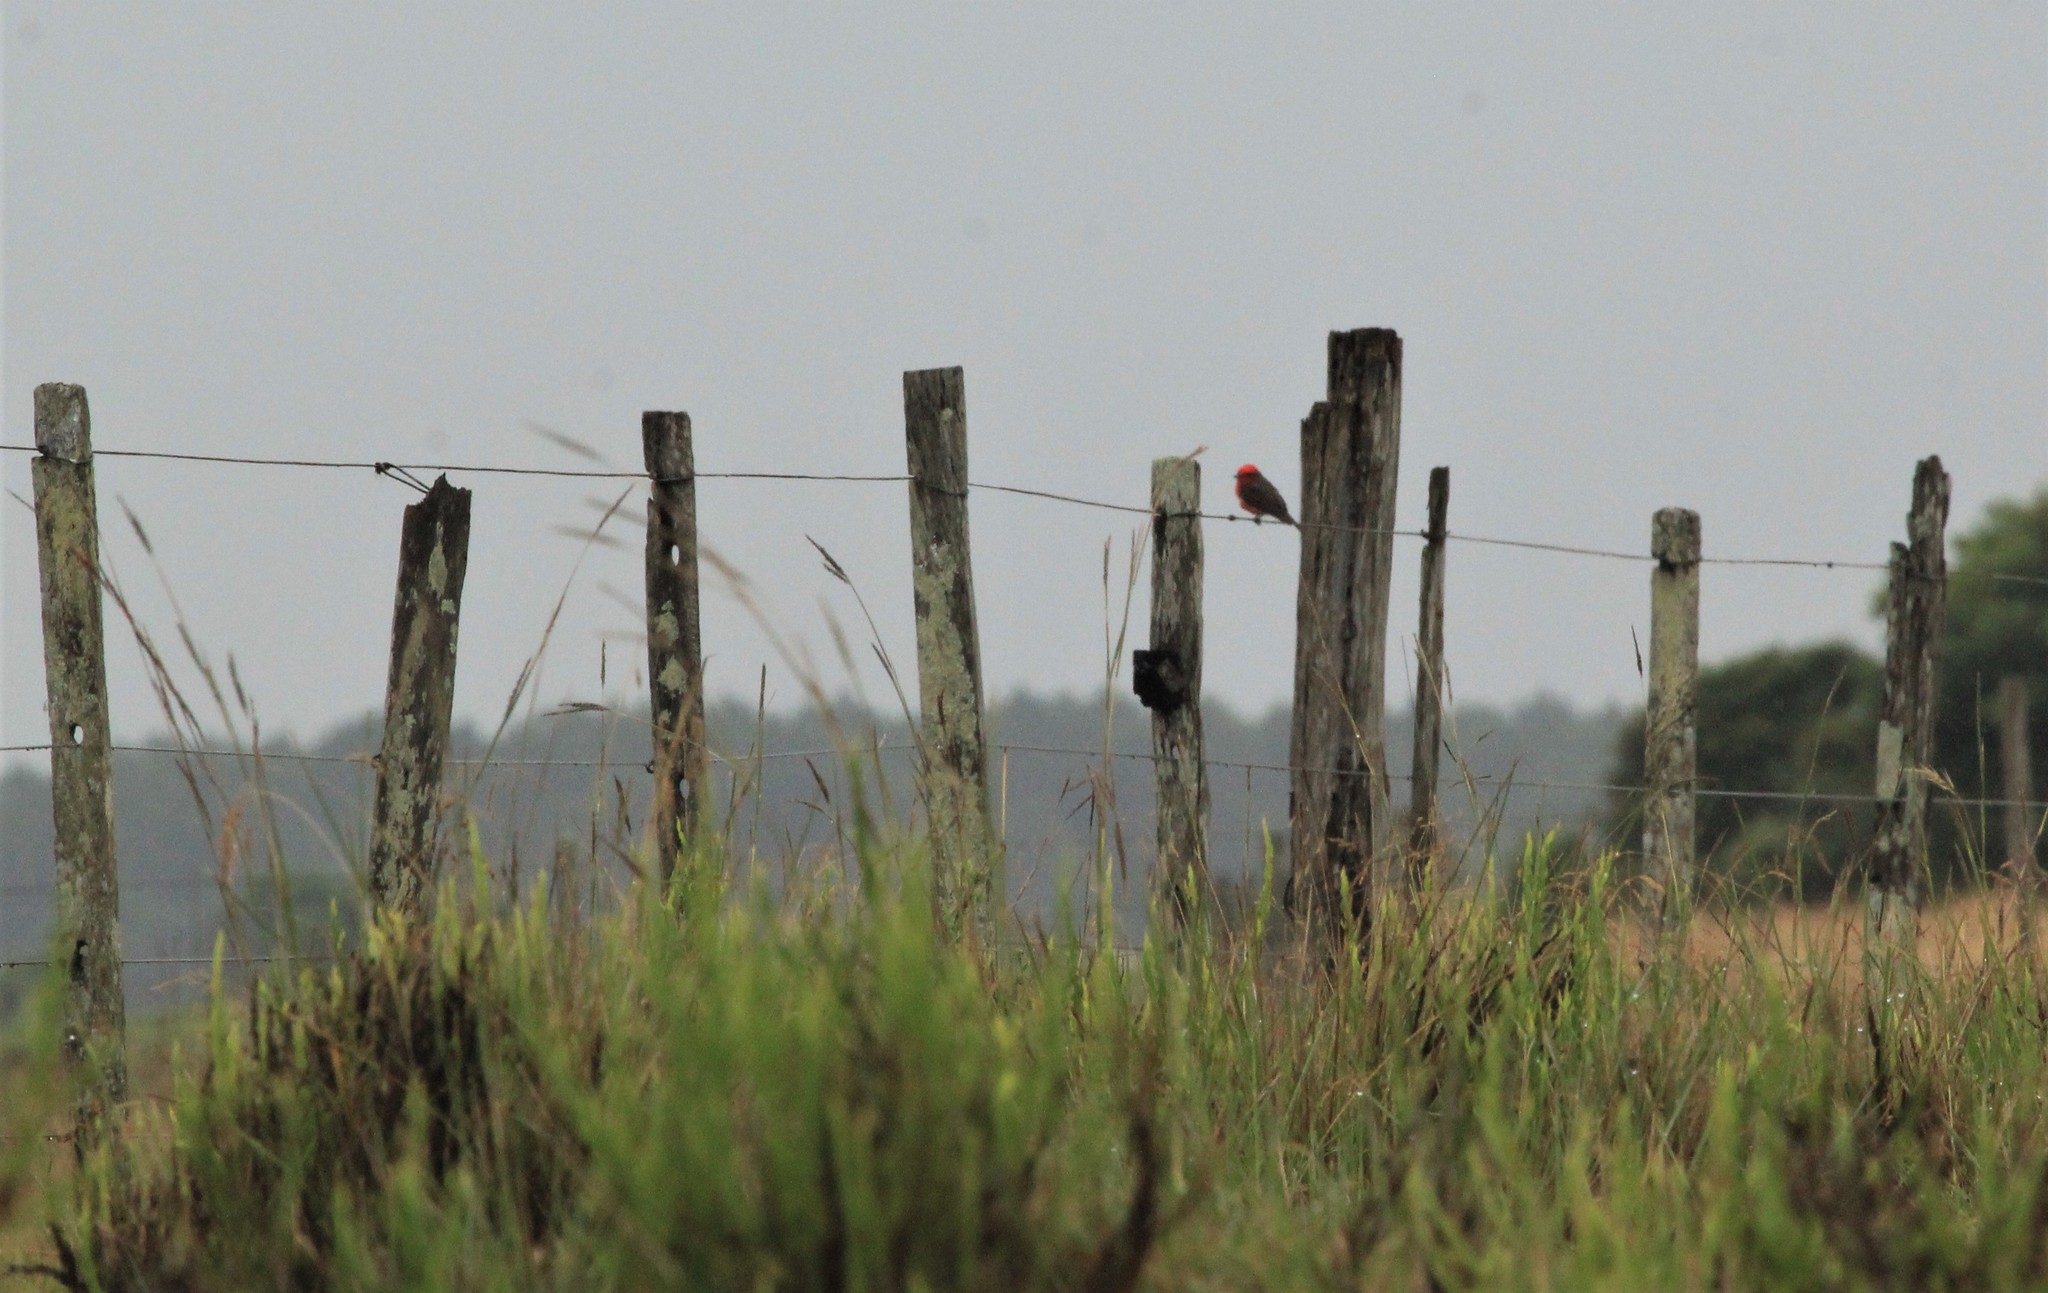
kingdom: Animalia
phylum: Chordata
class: Aves
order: Passeriformes
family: Tyrannidae
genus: Pyrocephalus
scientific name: Pyrocephalus rubinus
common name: Vermilion flycatcher
